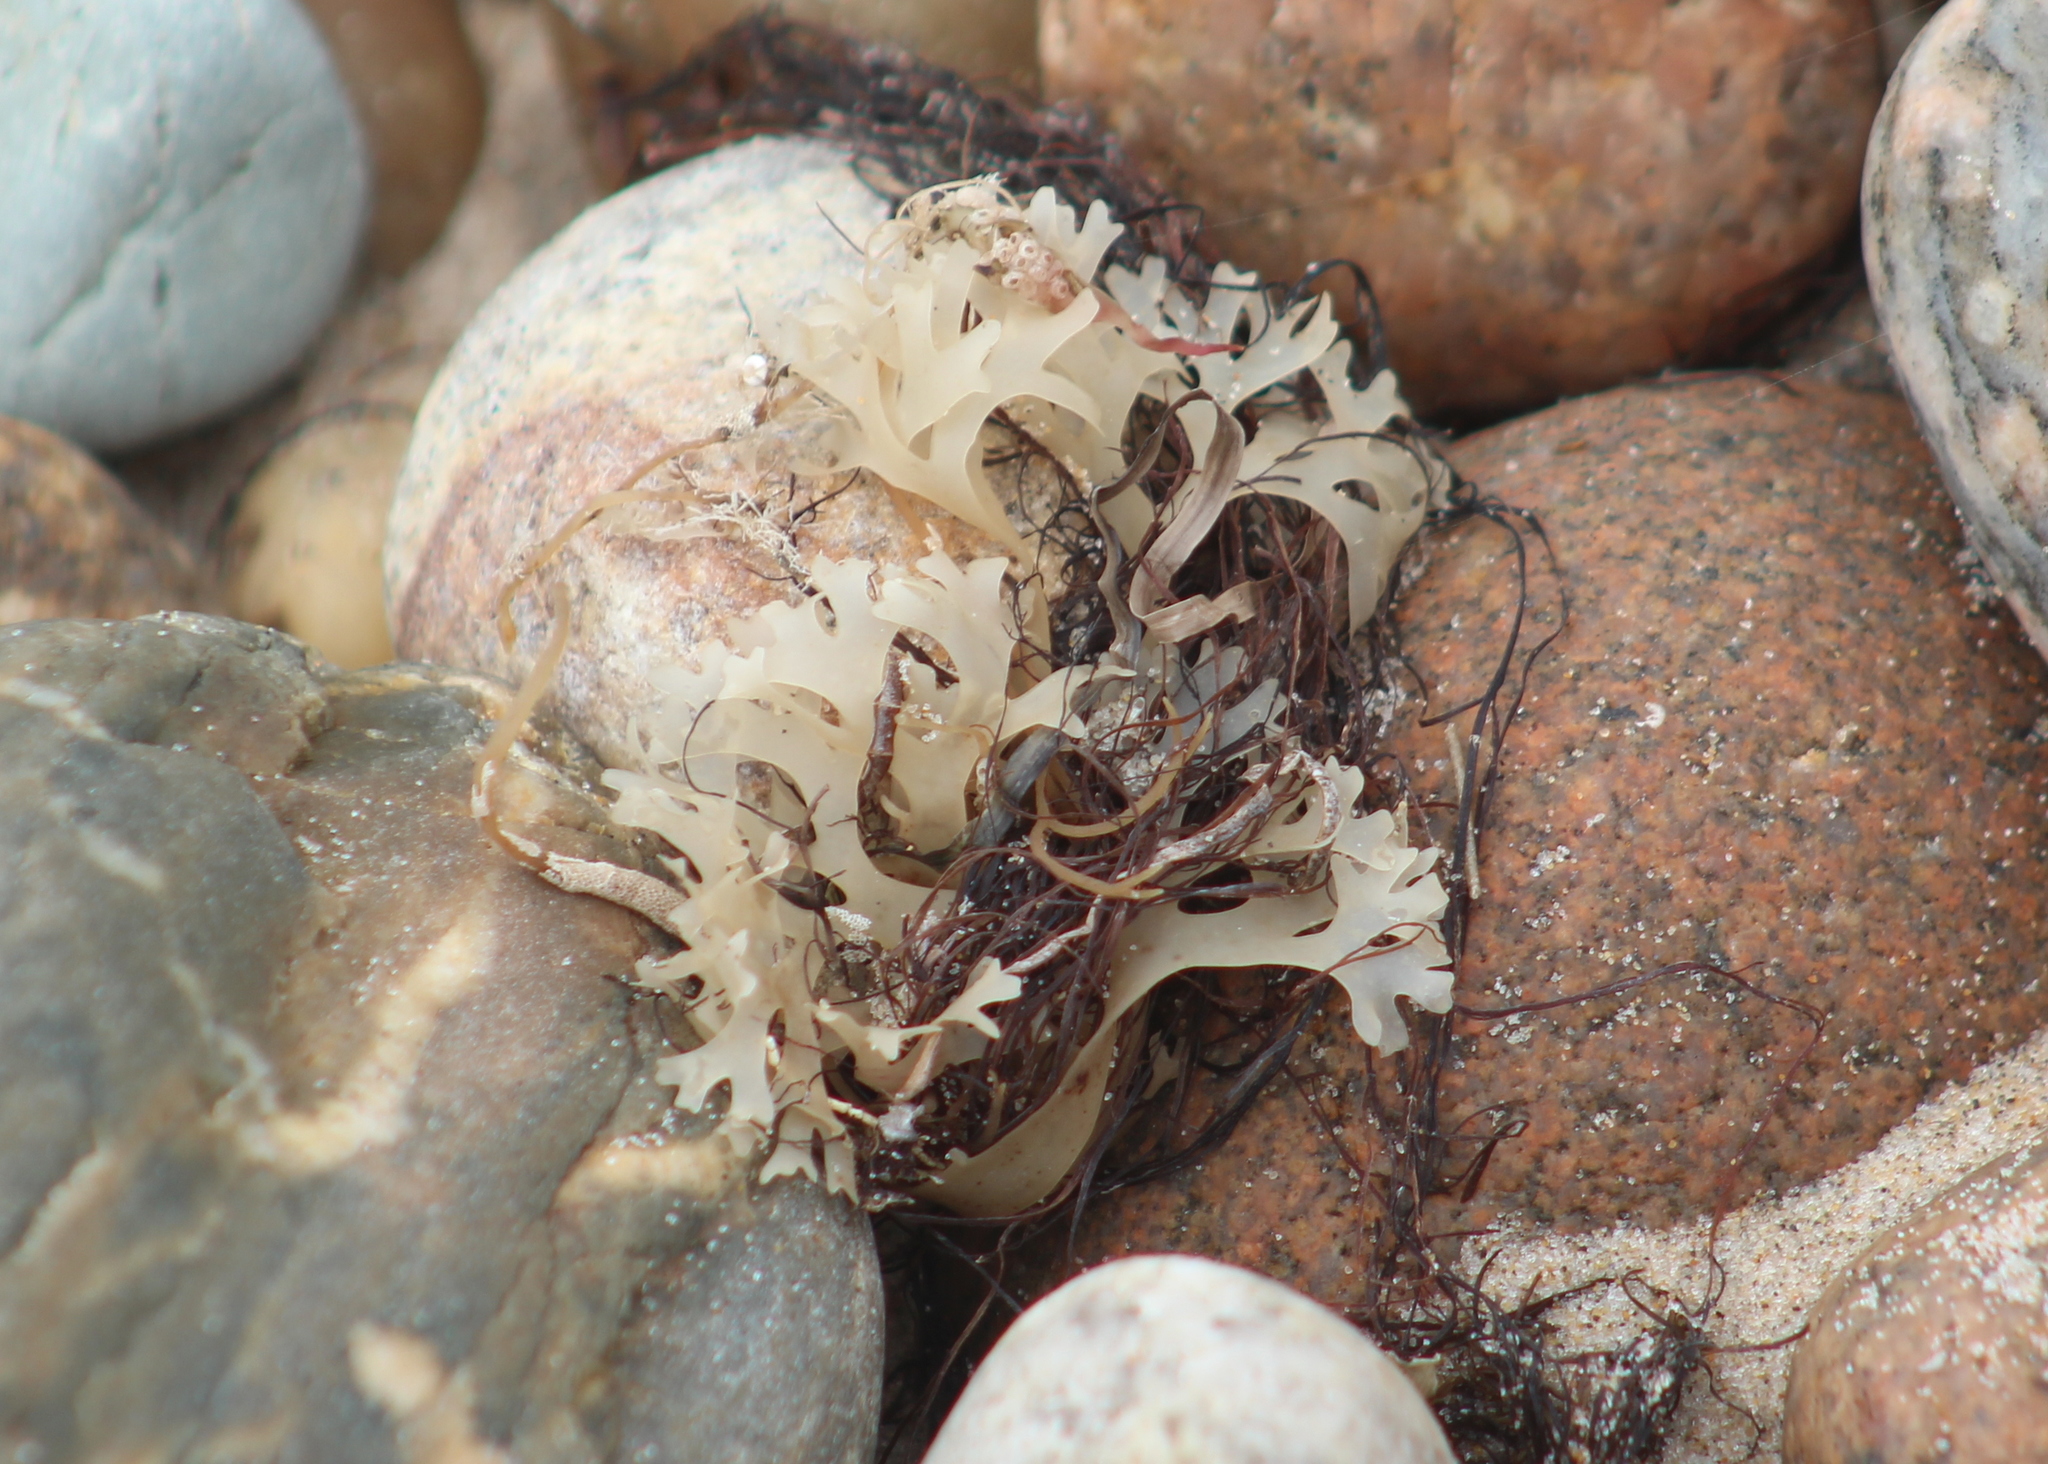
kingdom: Plantae
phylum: Rhodophyta
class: Florideophyceae
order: Gigartinales
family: Gigartinaceae
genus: Chondrus
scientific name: Chondrus crispus
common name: Carrageen
